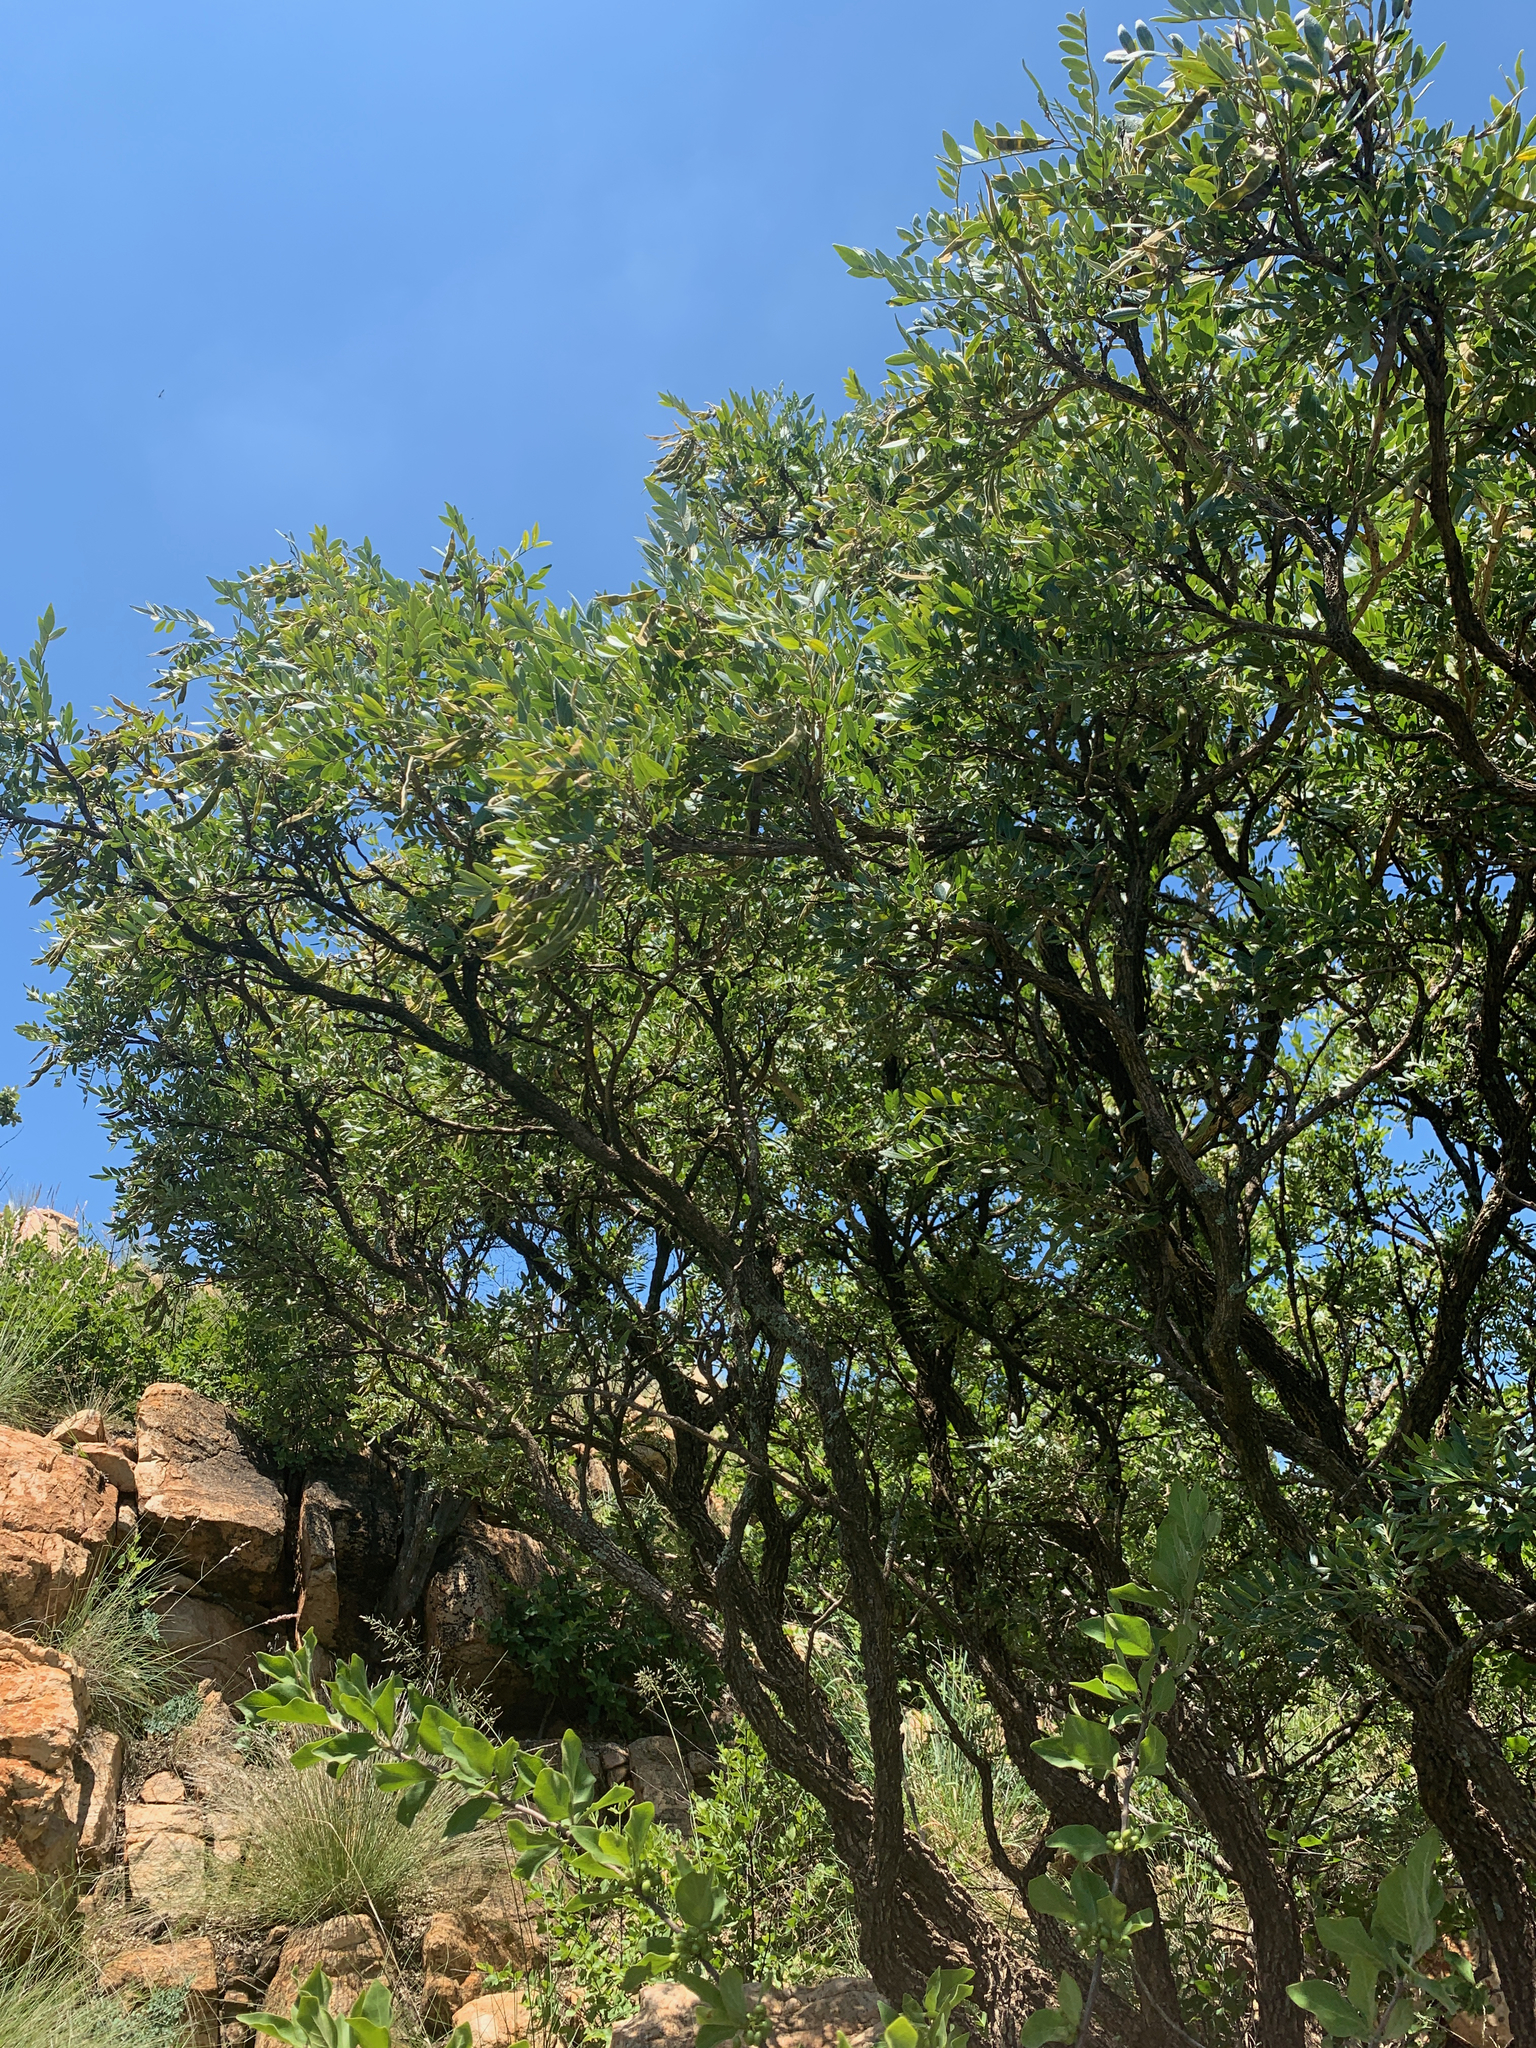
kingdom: Plantae
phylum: Tracheophyta
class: Magnoliopsida
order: Fabales
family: Fabaceae
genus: Mundulea
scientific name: Mundulea sericea
